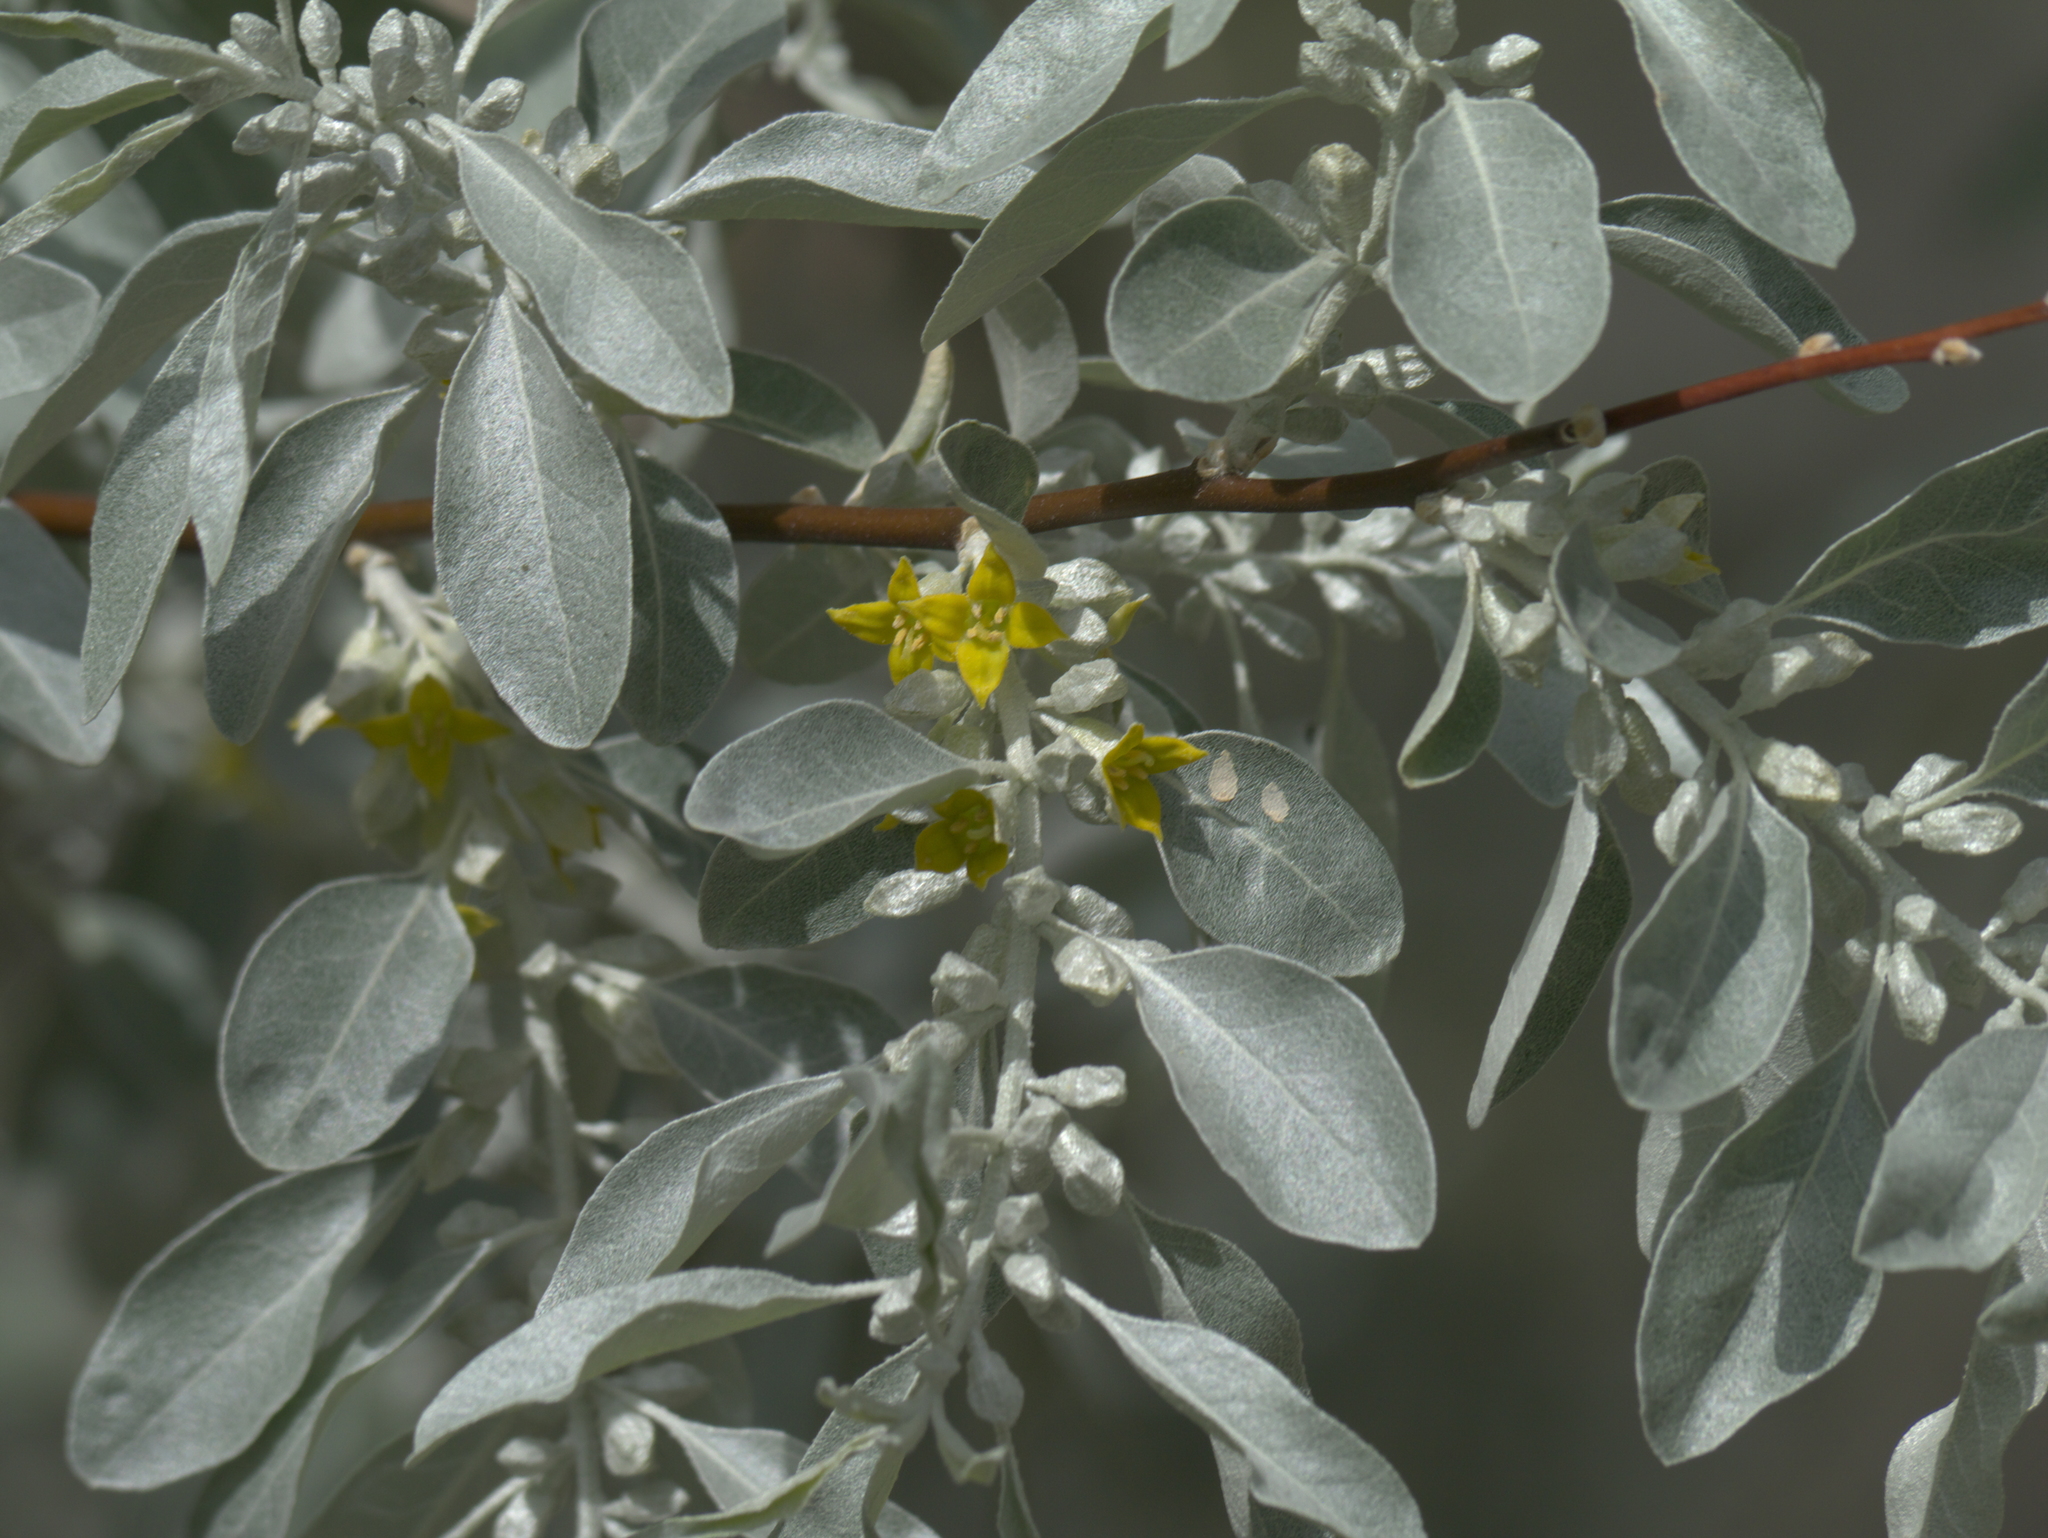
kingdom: Plantae
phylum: Tracheophyta
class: Magnoliopsida
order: Rosales
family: Elaeagnaceae
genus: Elaeagnus
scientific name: Elaeagnus angustifolia
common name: Russian olive
